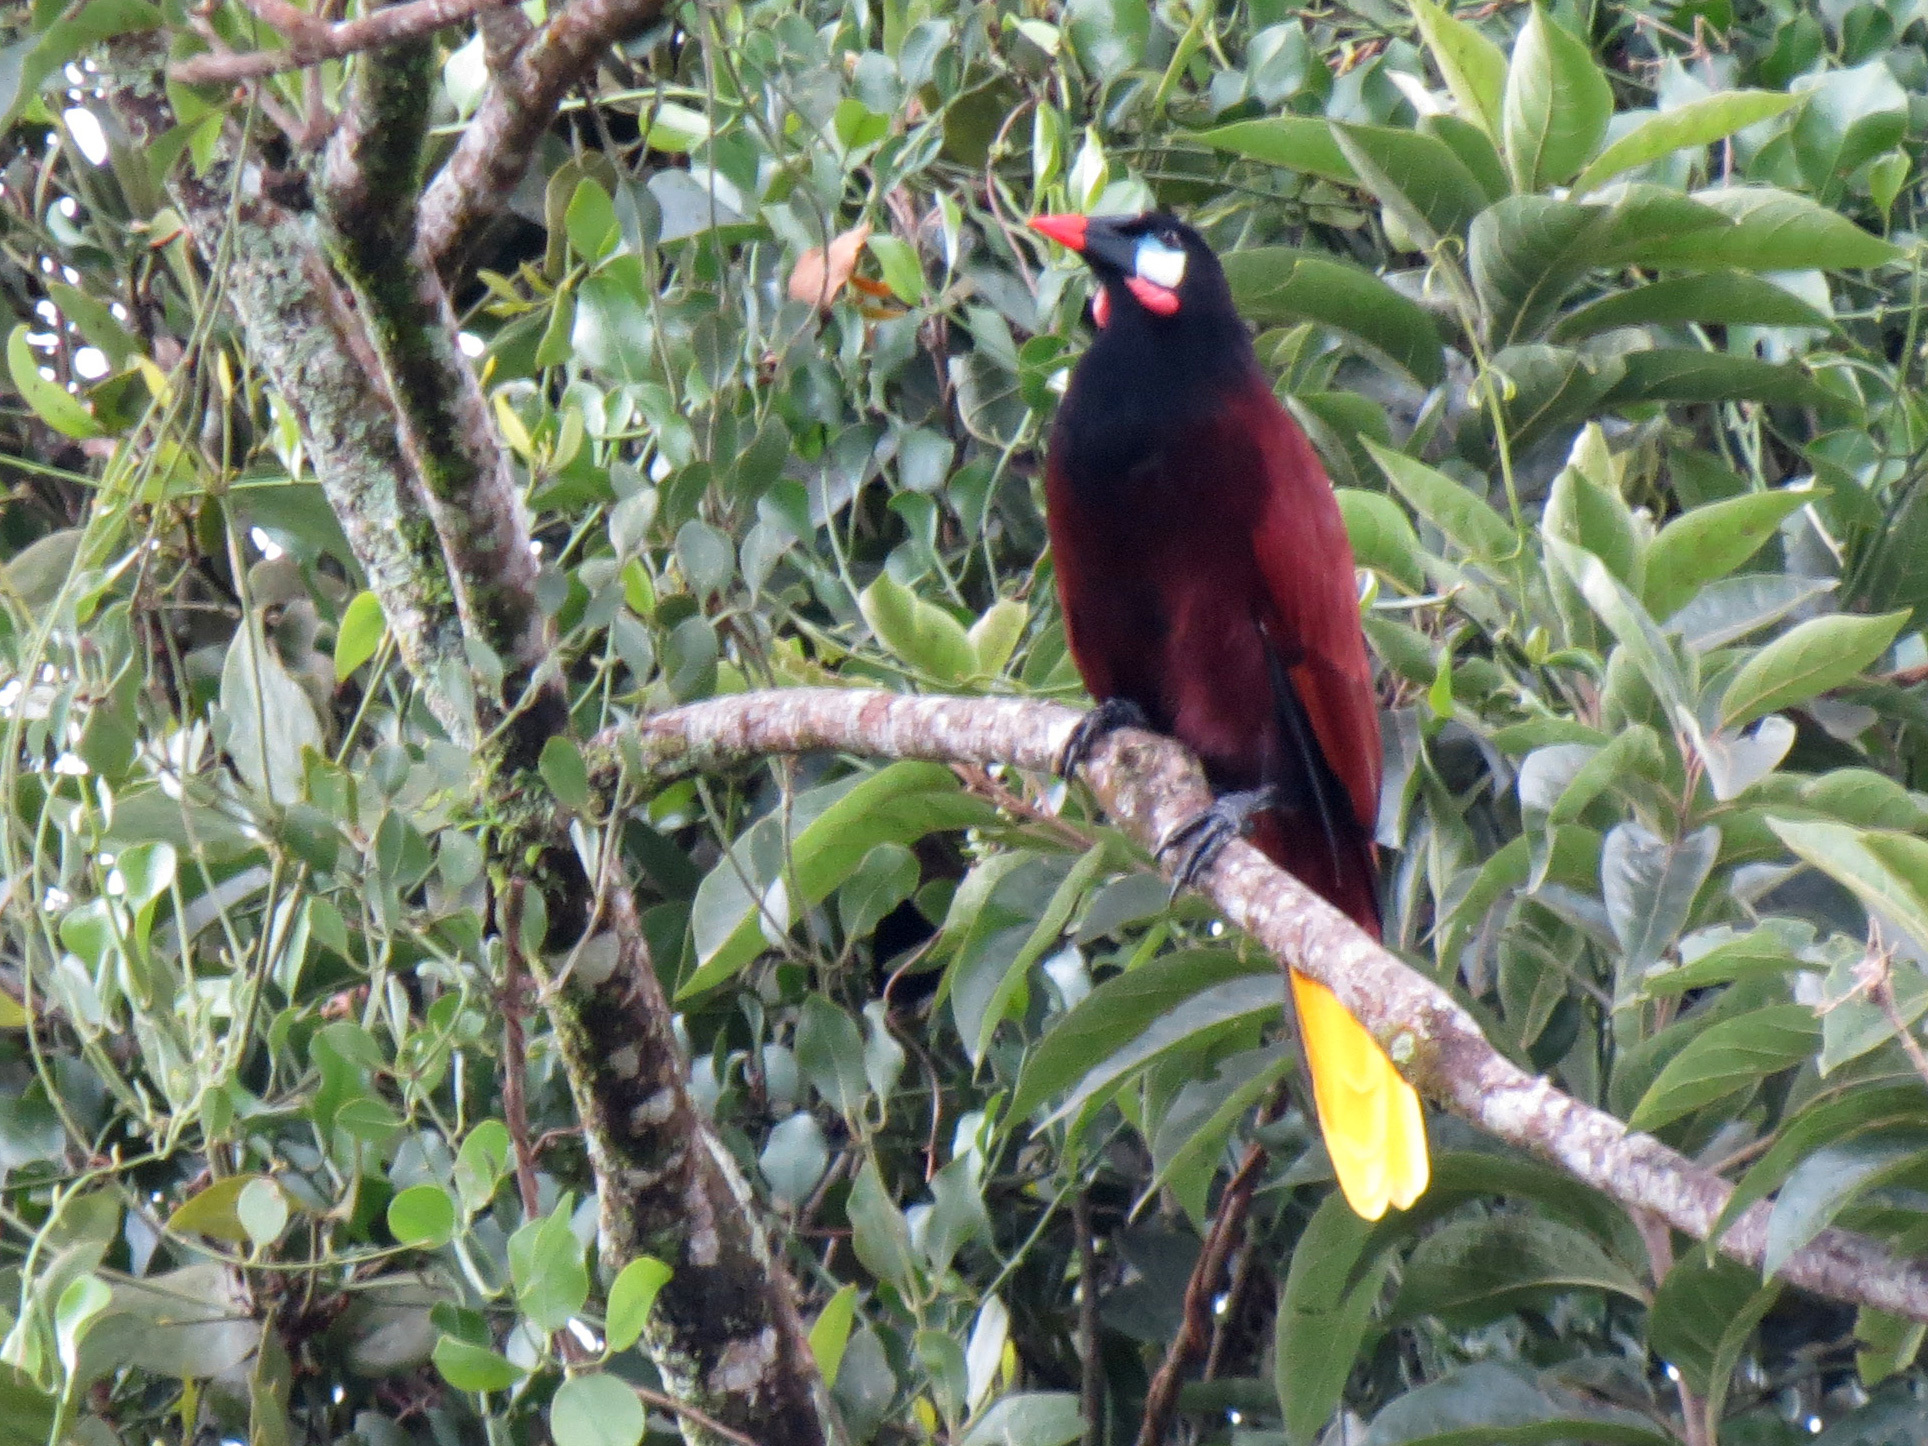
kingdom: Animalia
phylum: Chordata
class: Aves
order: Passeriformes
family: Icteridae
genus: Psarocolius
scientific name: Psarocolius montezuma
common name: Montezuma oropendola
